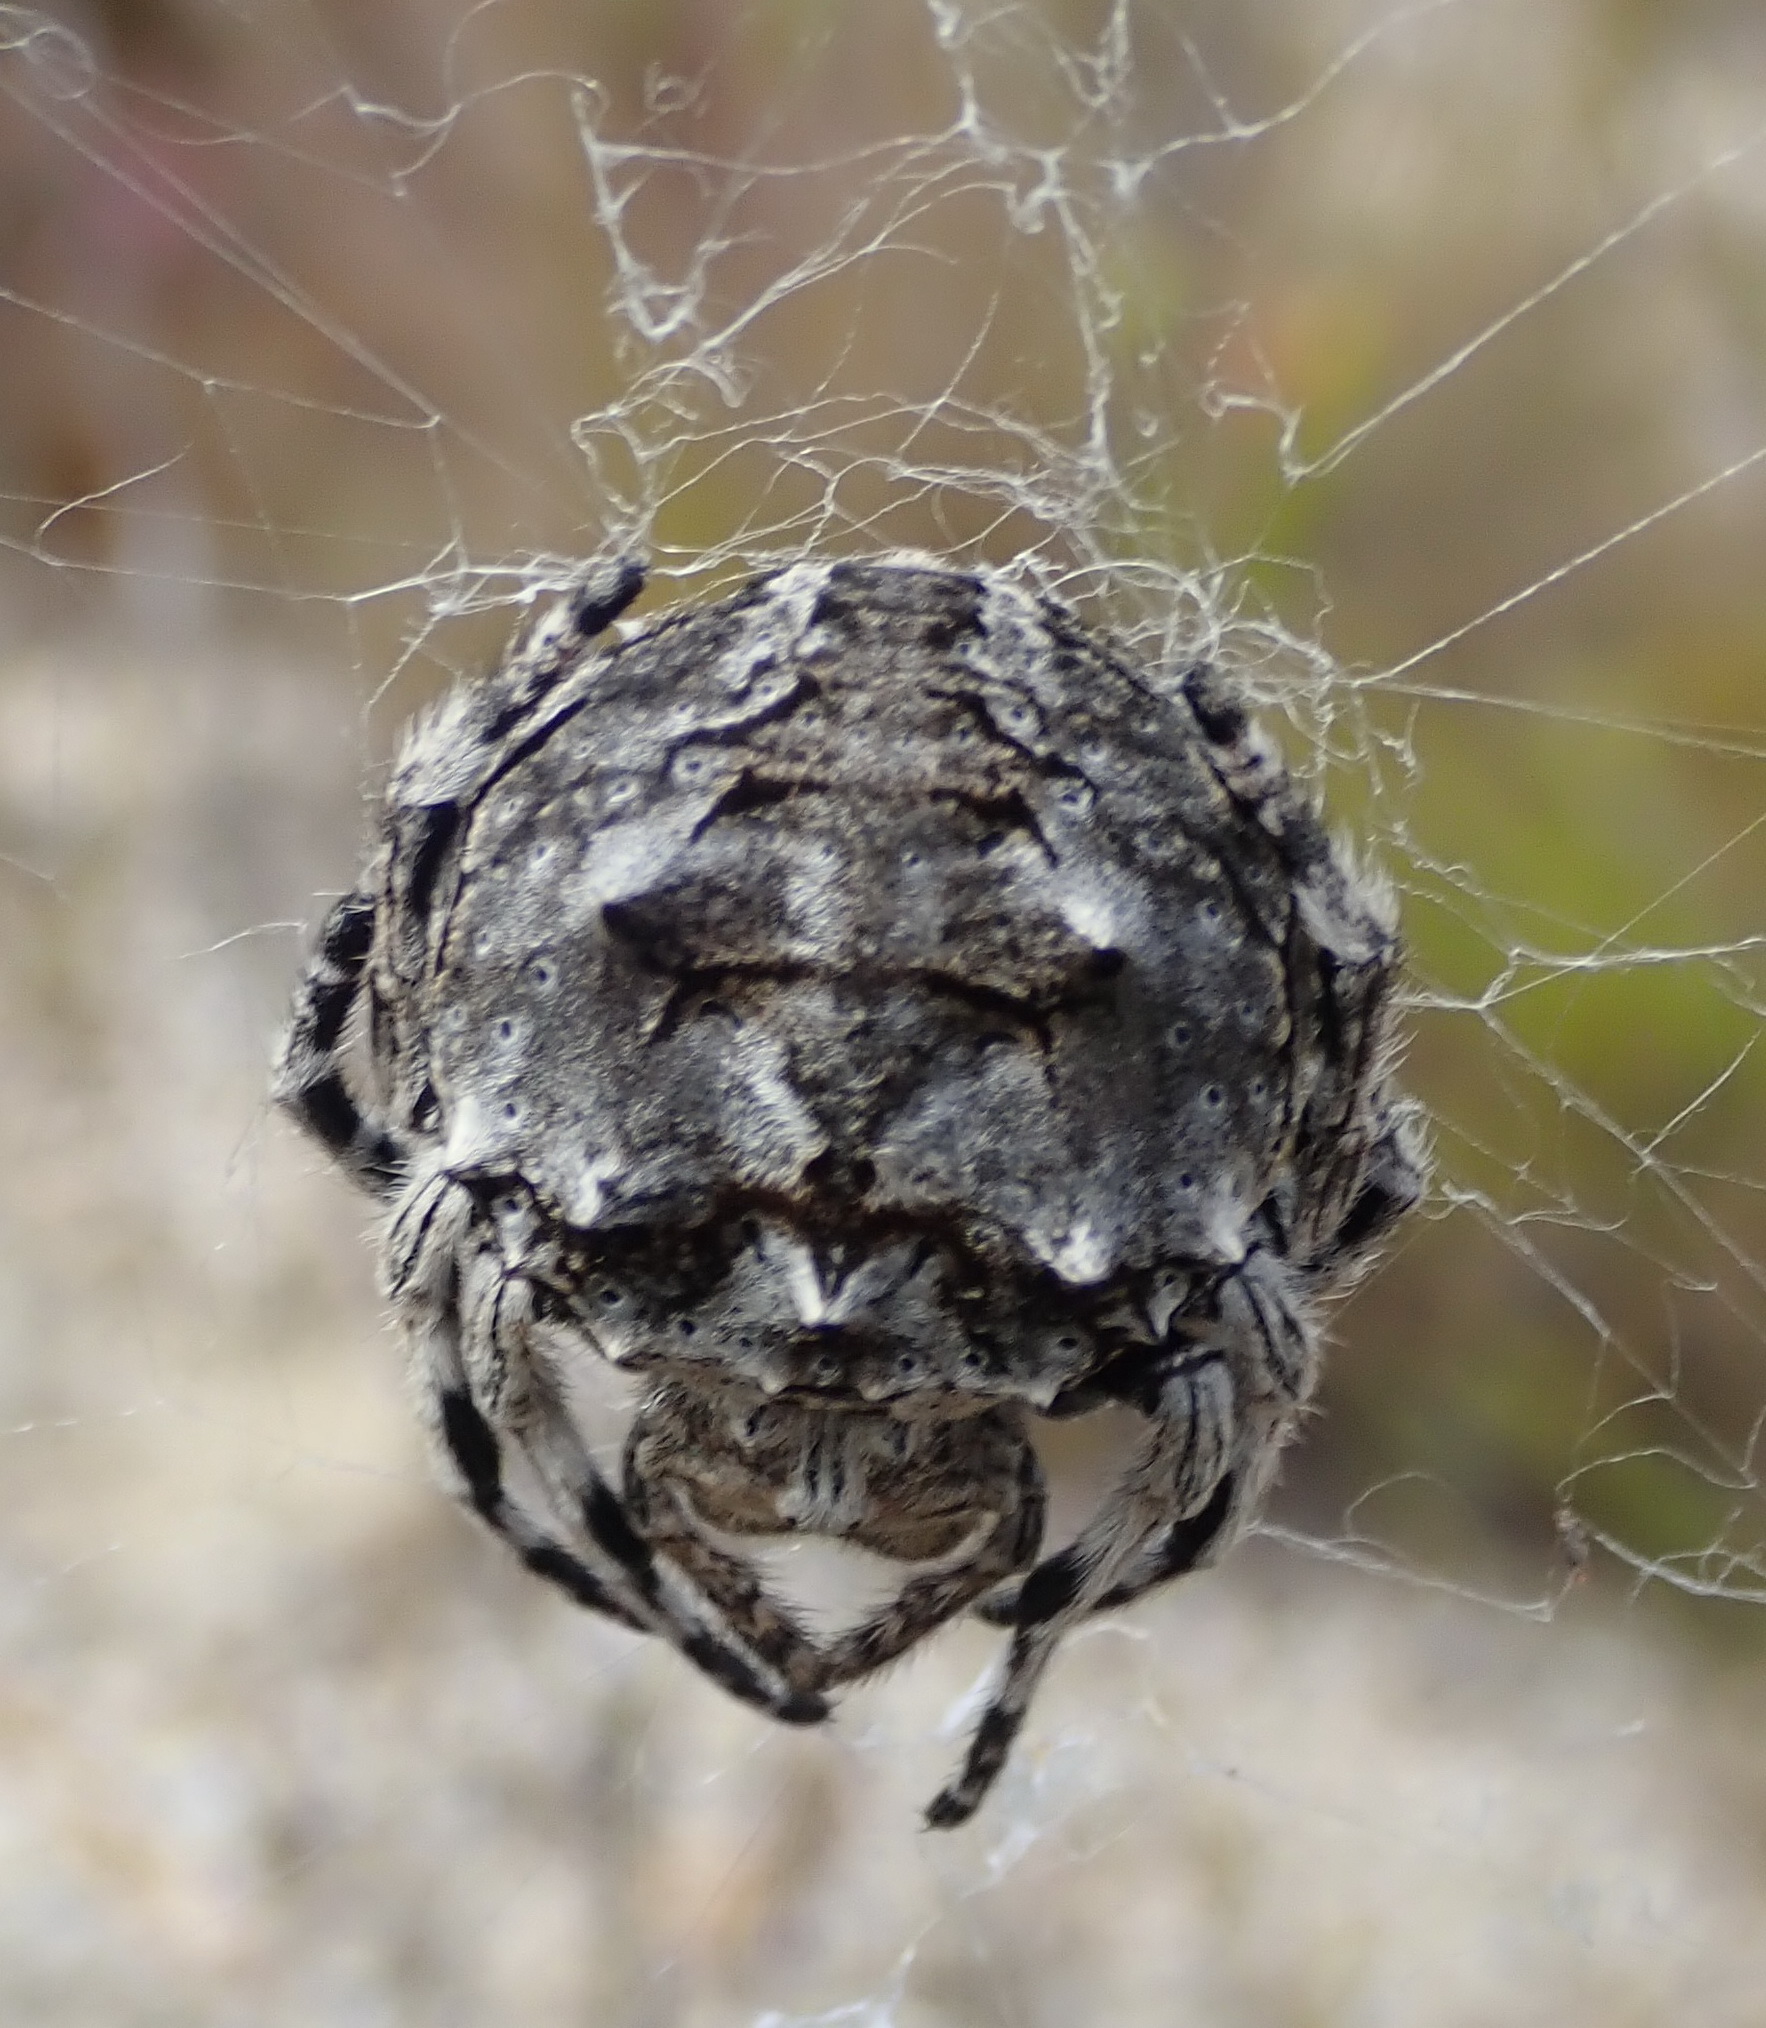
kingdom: Animalia
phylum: Arthropoda
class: Arachnida
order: Araneae
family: Araneidae
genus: Caerostris
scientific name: Caerostris sexcuspidata
